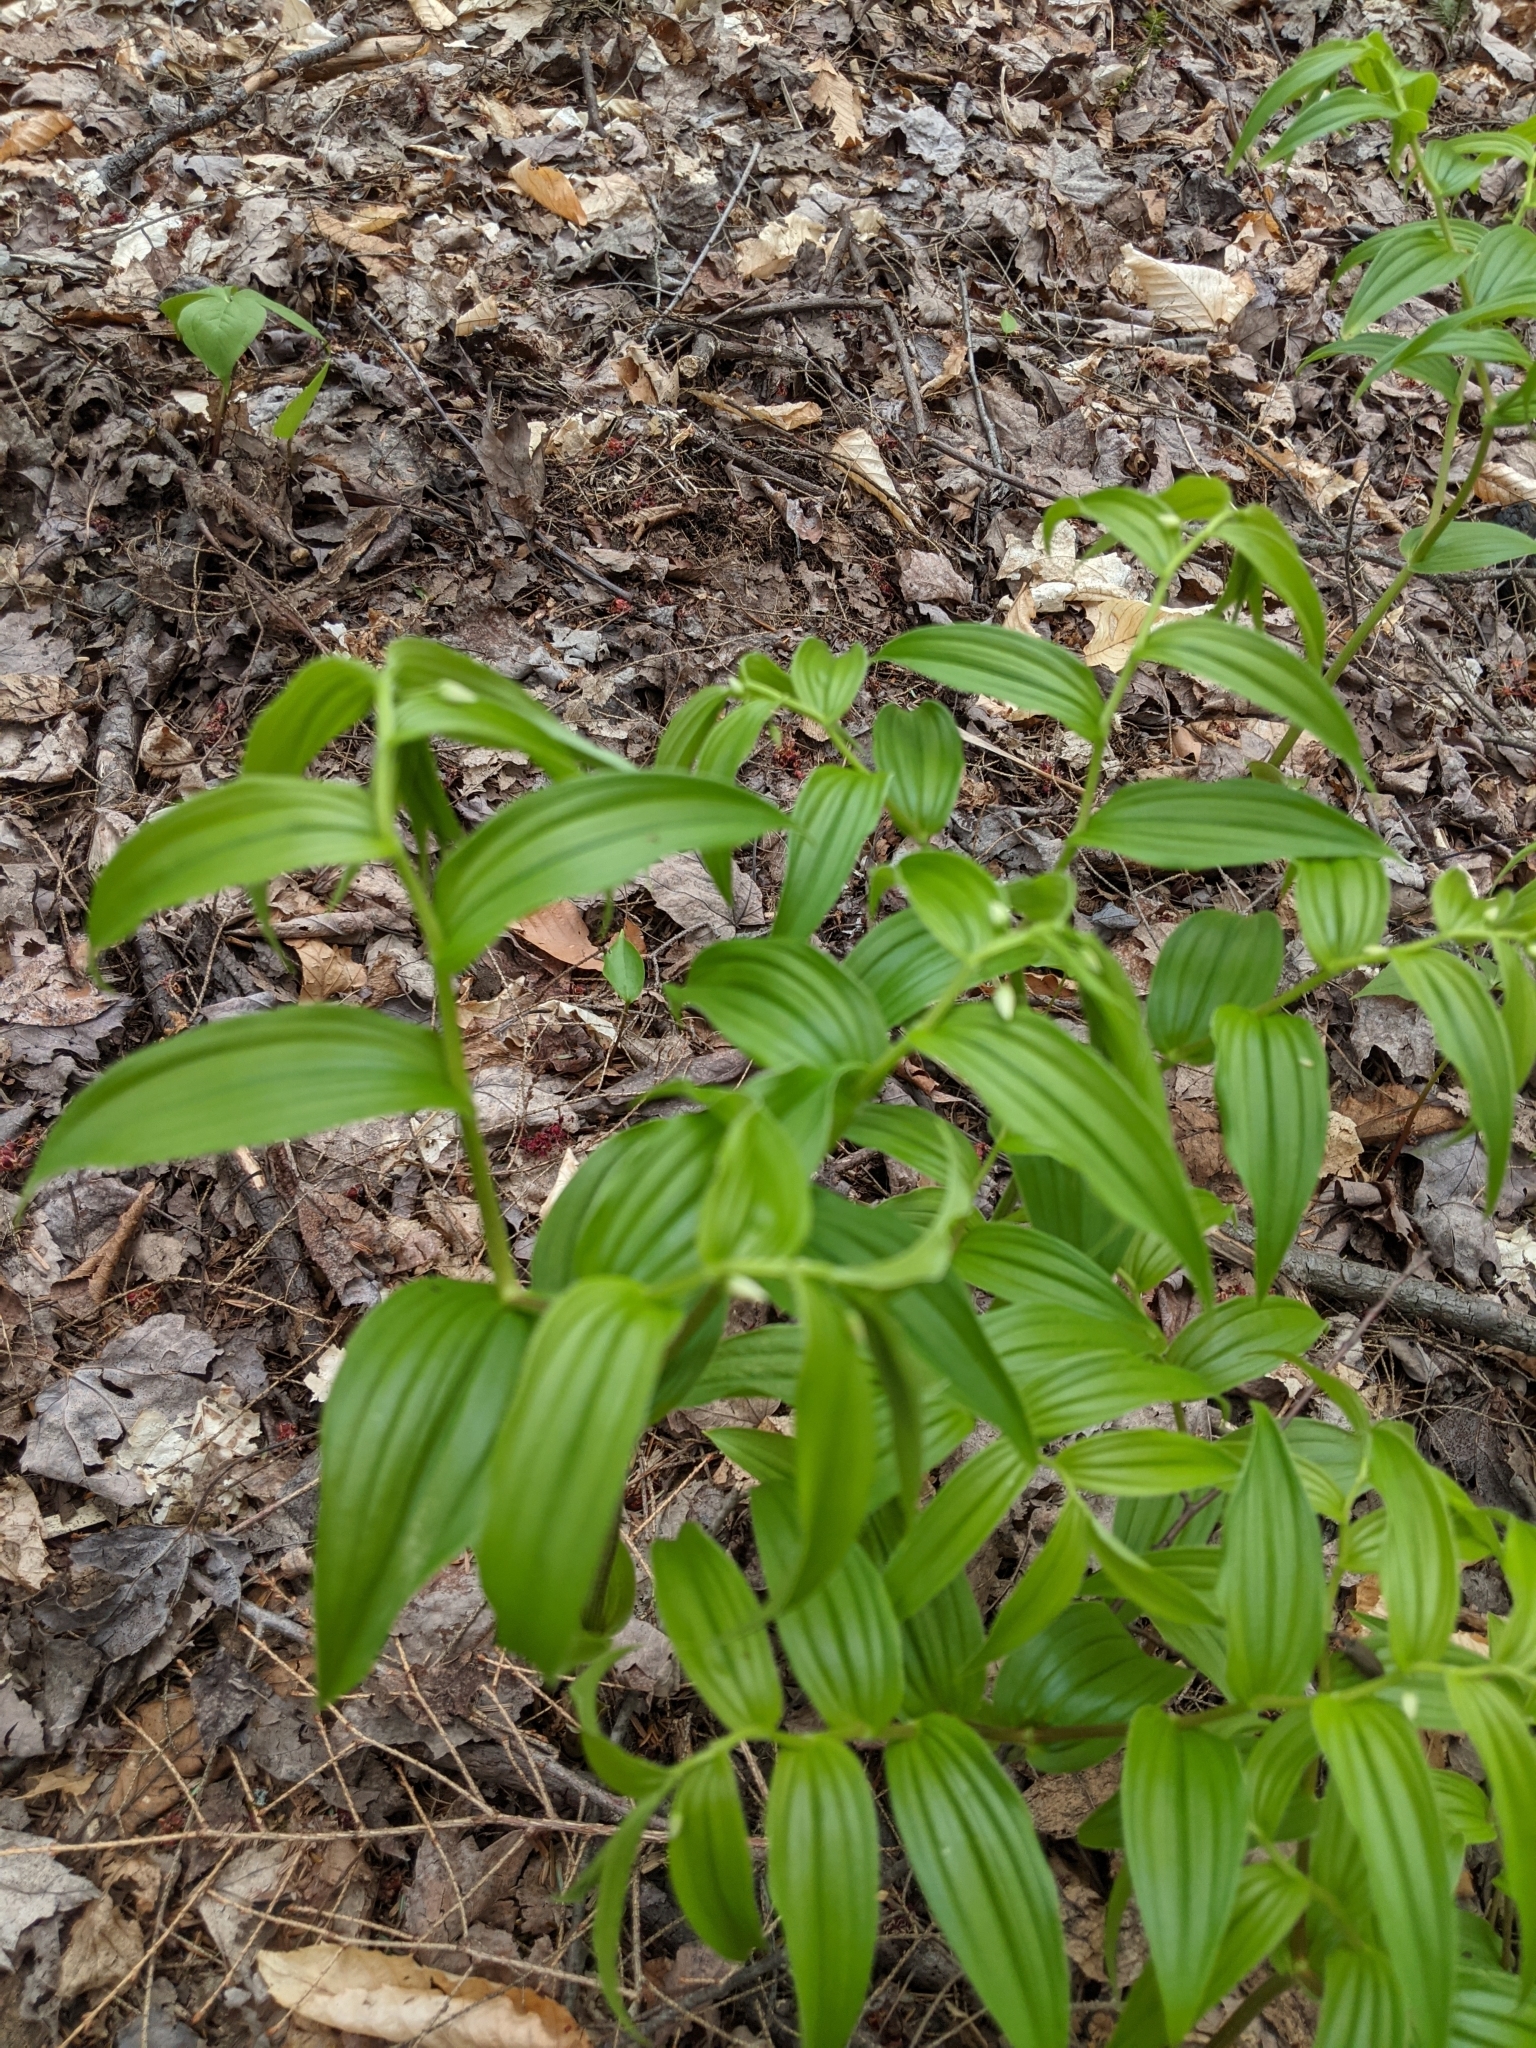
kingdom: Plantae
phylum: Tracheophyta
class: Liliopsida
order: Liliales
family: Liliaceae
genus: Streptopus
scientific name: Streptopus lanceolatus
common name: Rose mandarin
